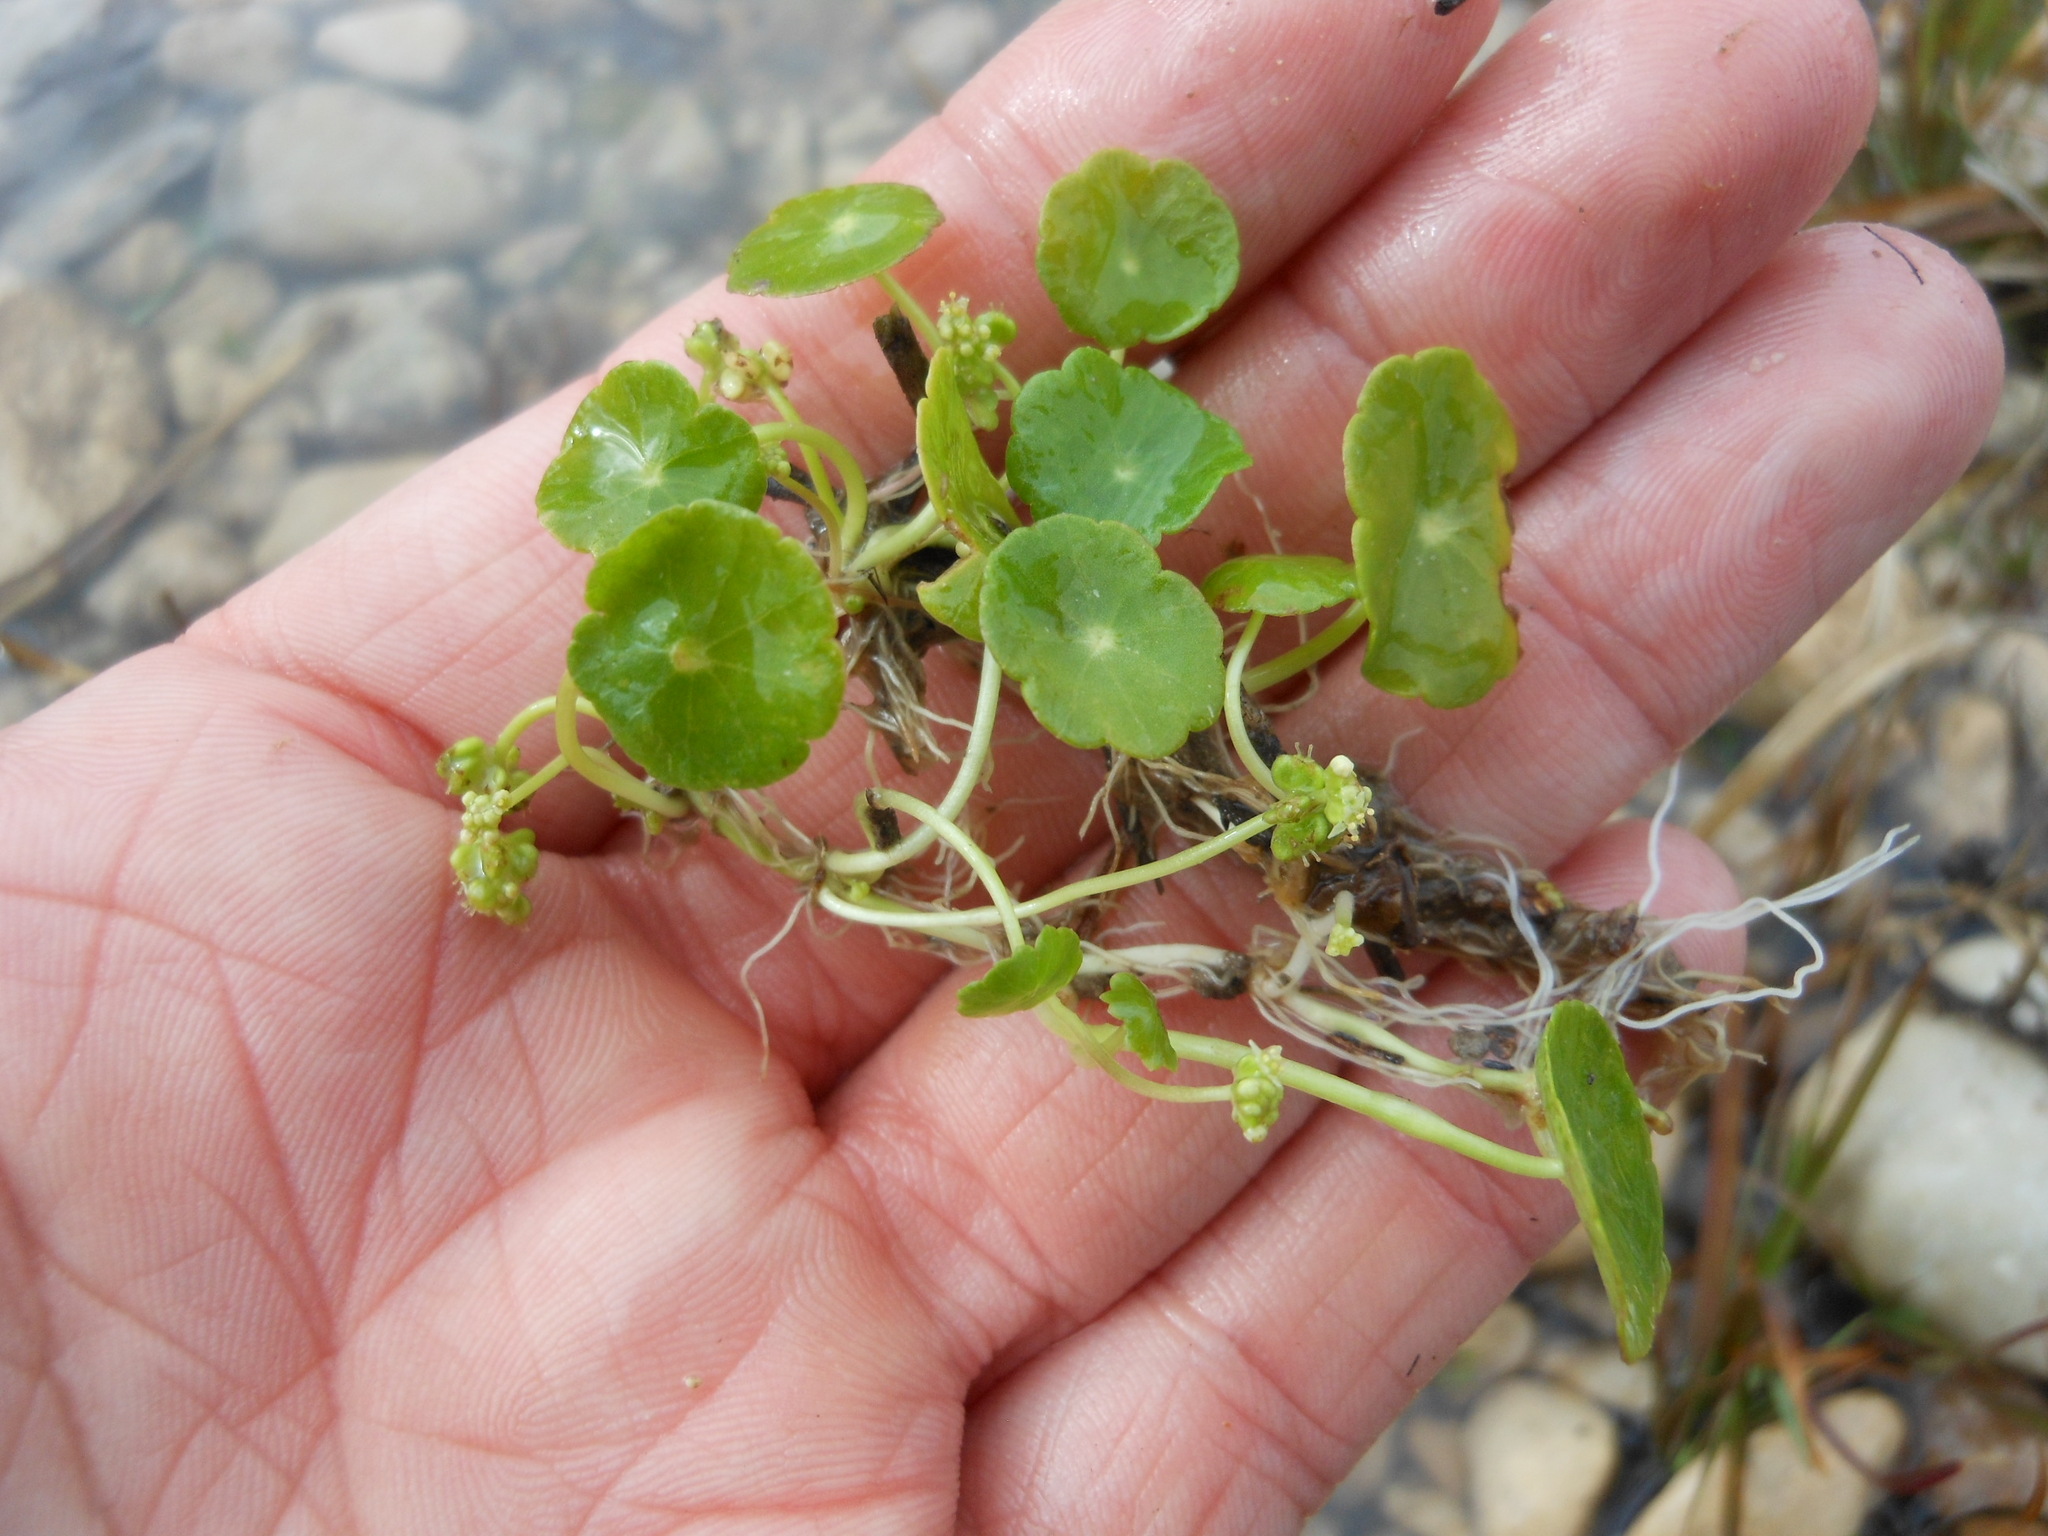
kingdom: Plantae
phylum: Tracheophyta
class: Magnoliopsida
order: Apiales
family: Araliaceae
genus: Hydrocotyle
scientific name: Hydrocotyle verticillata
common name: Whorled marshpennywort
